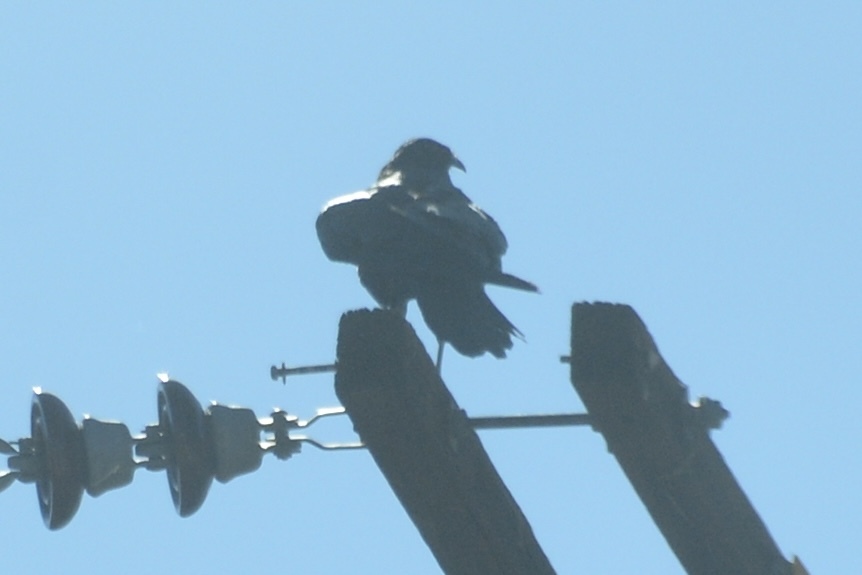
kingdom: Animalia
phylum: Chordata
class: Aves
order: Passeriformes
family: Corvidae
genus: Corvus
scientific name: Corvus corax
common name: Common raven
